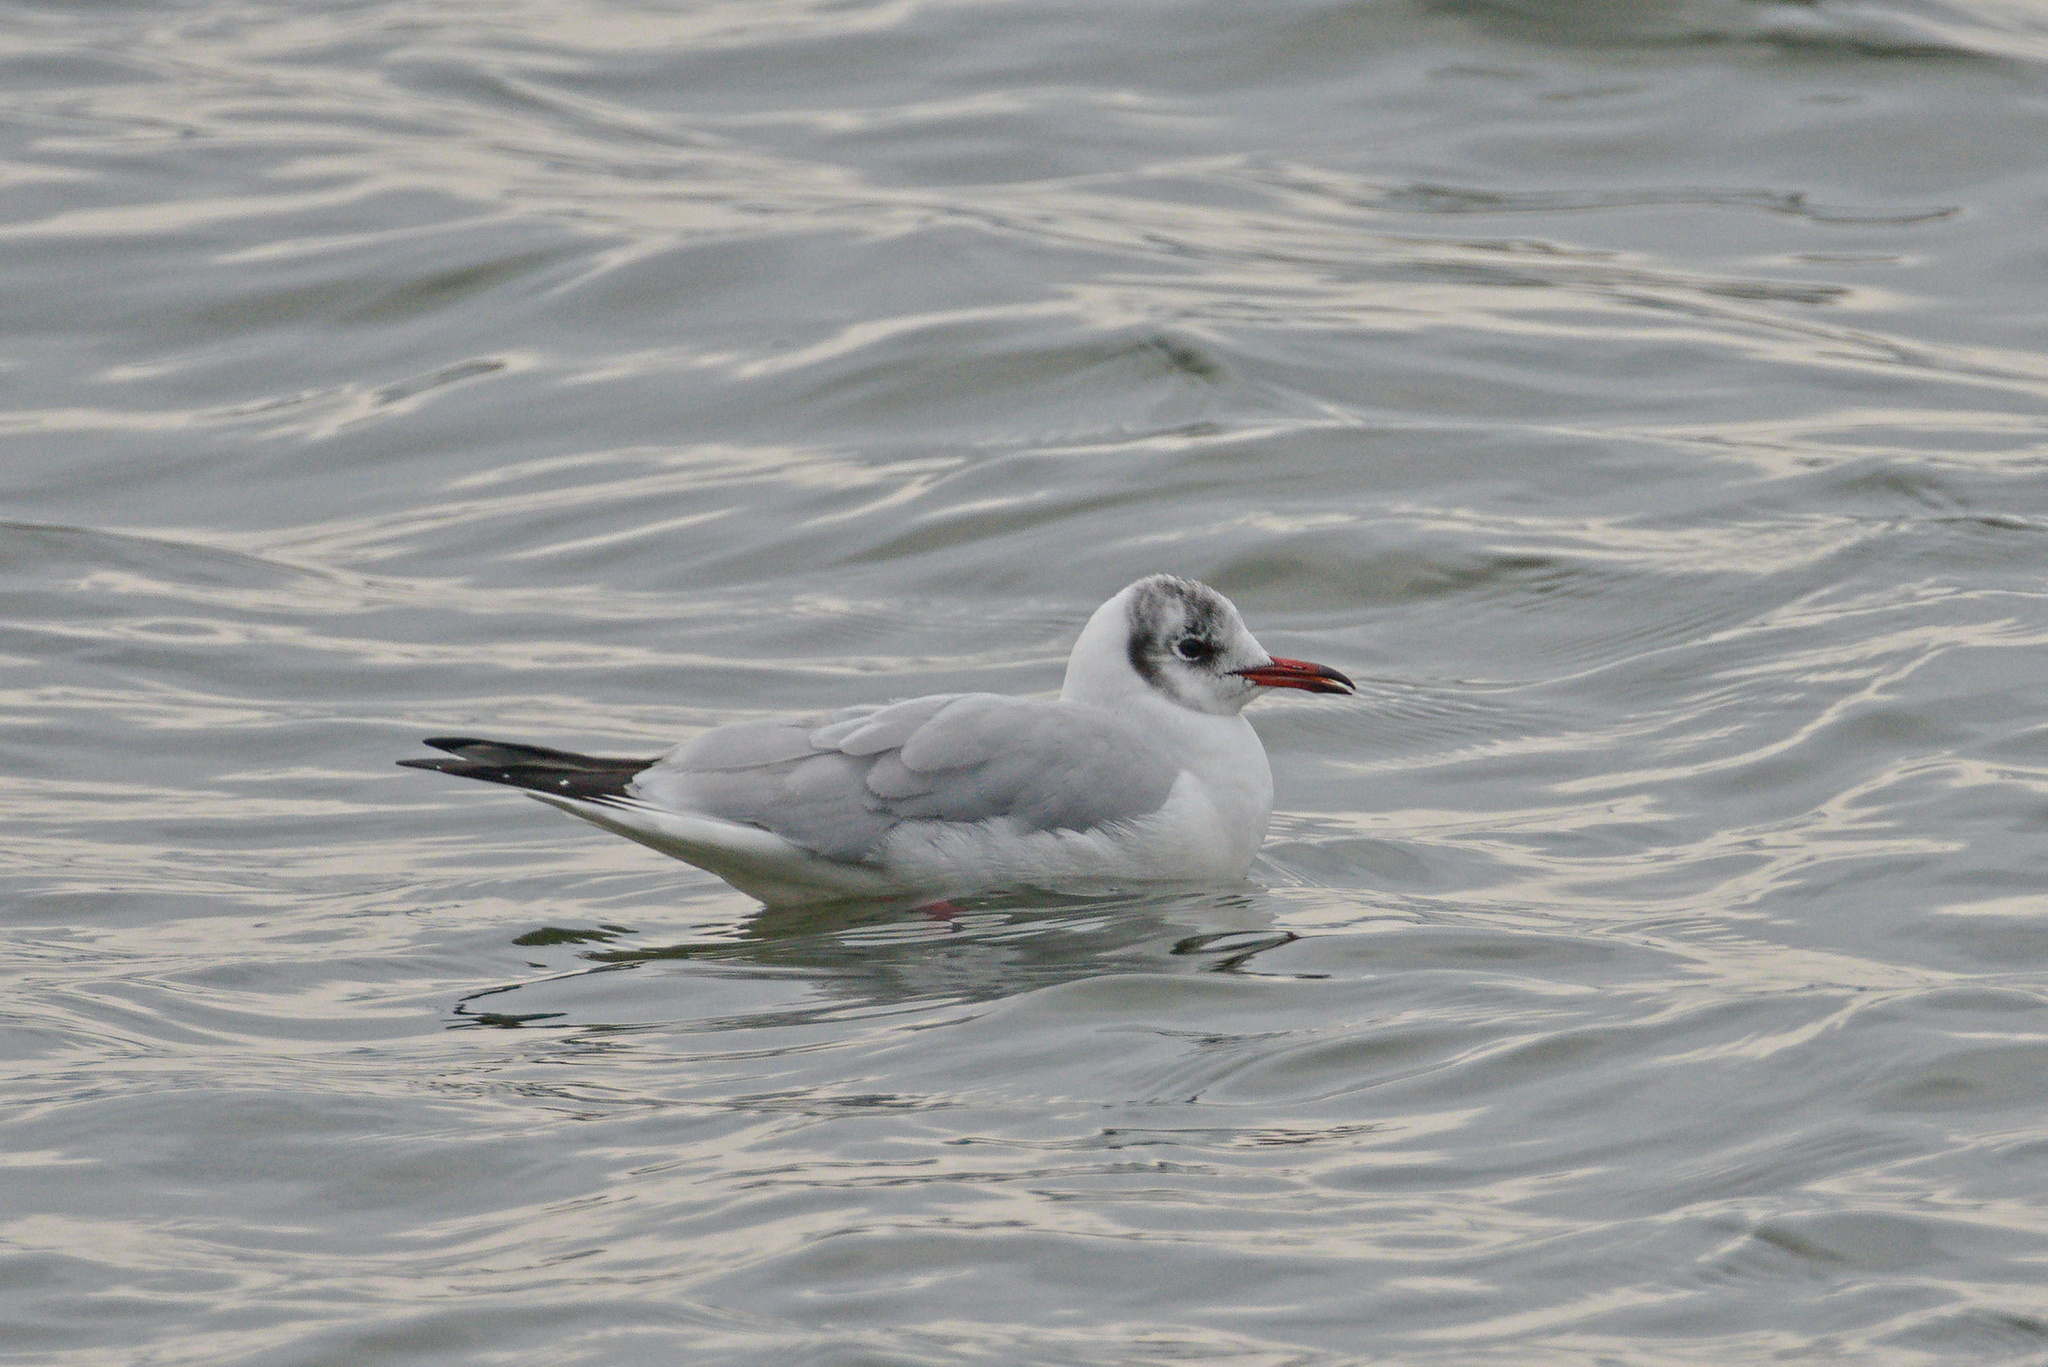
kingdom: Animalia
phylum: Chordata
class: Aves
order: Charadriiformes
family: Laridae
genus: Chroicocephalus
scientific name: Chroicocephalus ridibundus
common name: Black-headed gull
